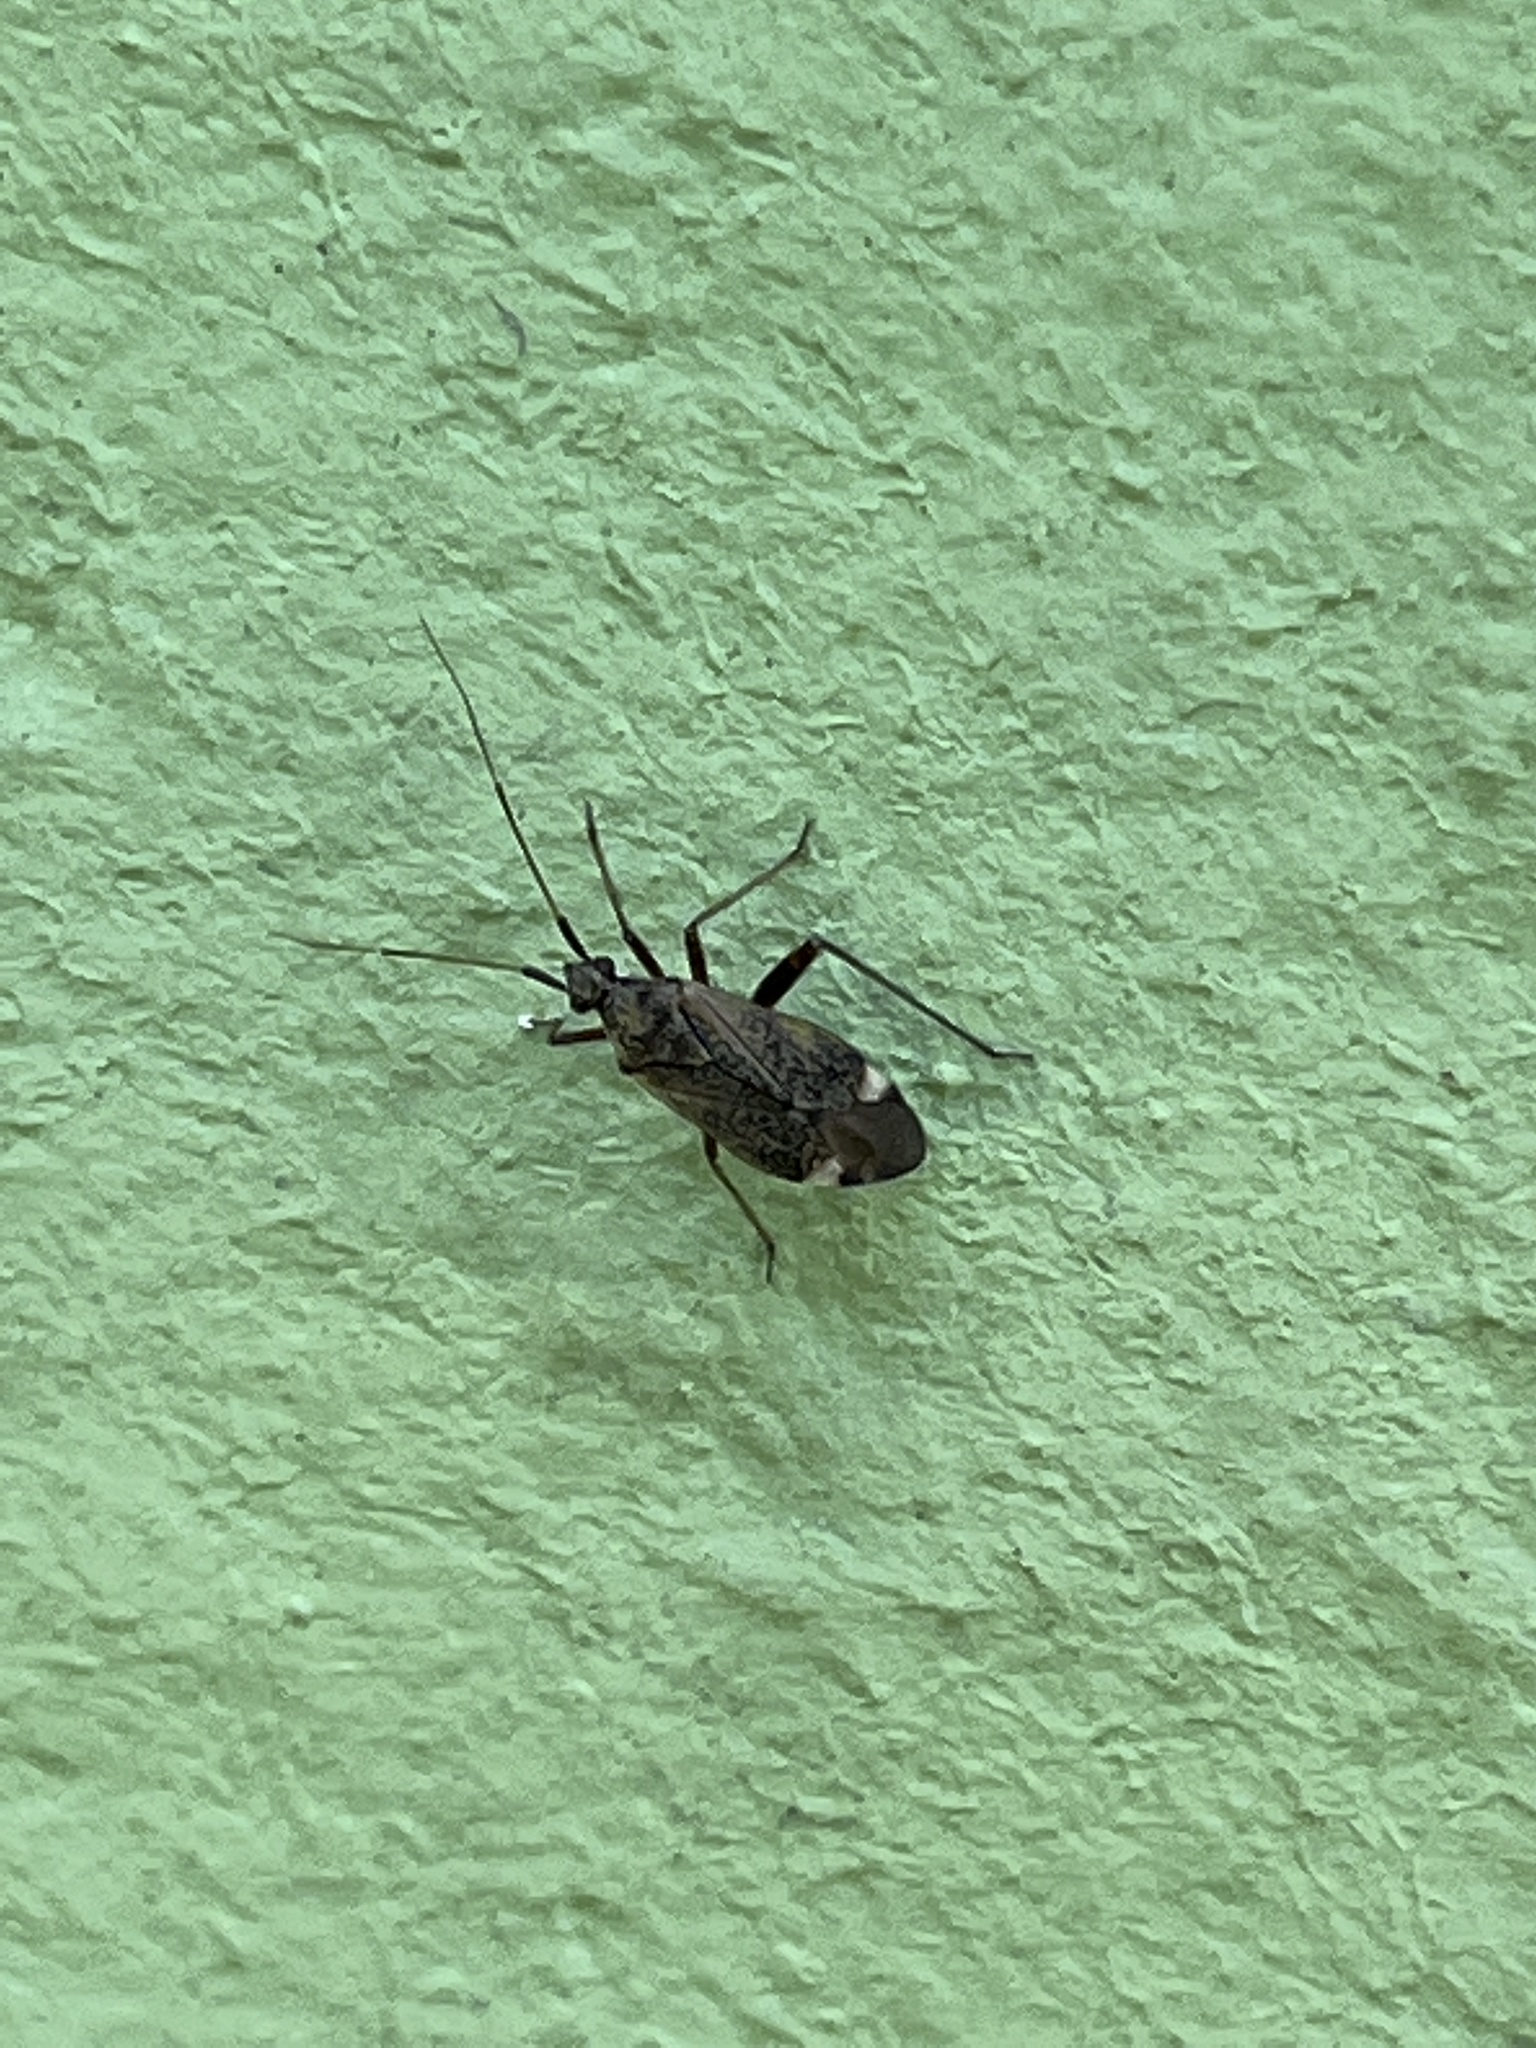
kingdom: Animalia
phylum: Arthropoda
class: Insecta
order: Hemiptera
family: Miridae
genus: Closterotomus
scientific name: Closterotomus fulvomaculatus
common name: Spotted plant bug
